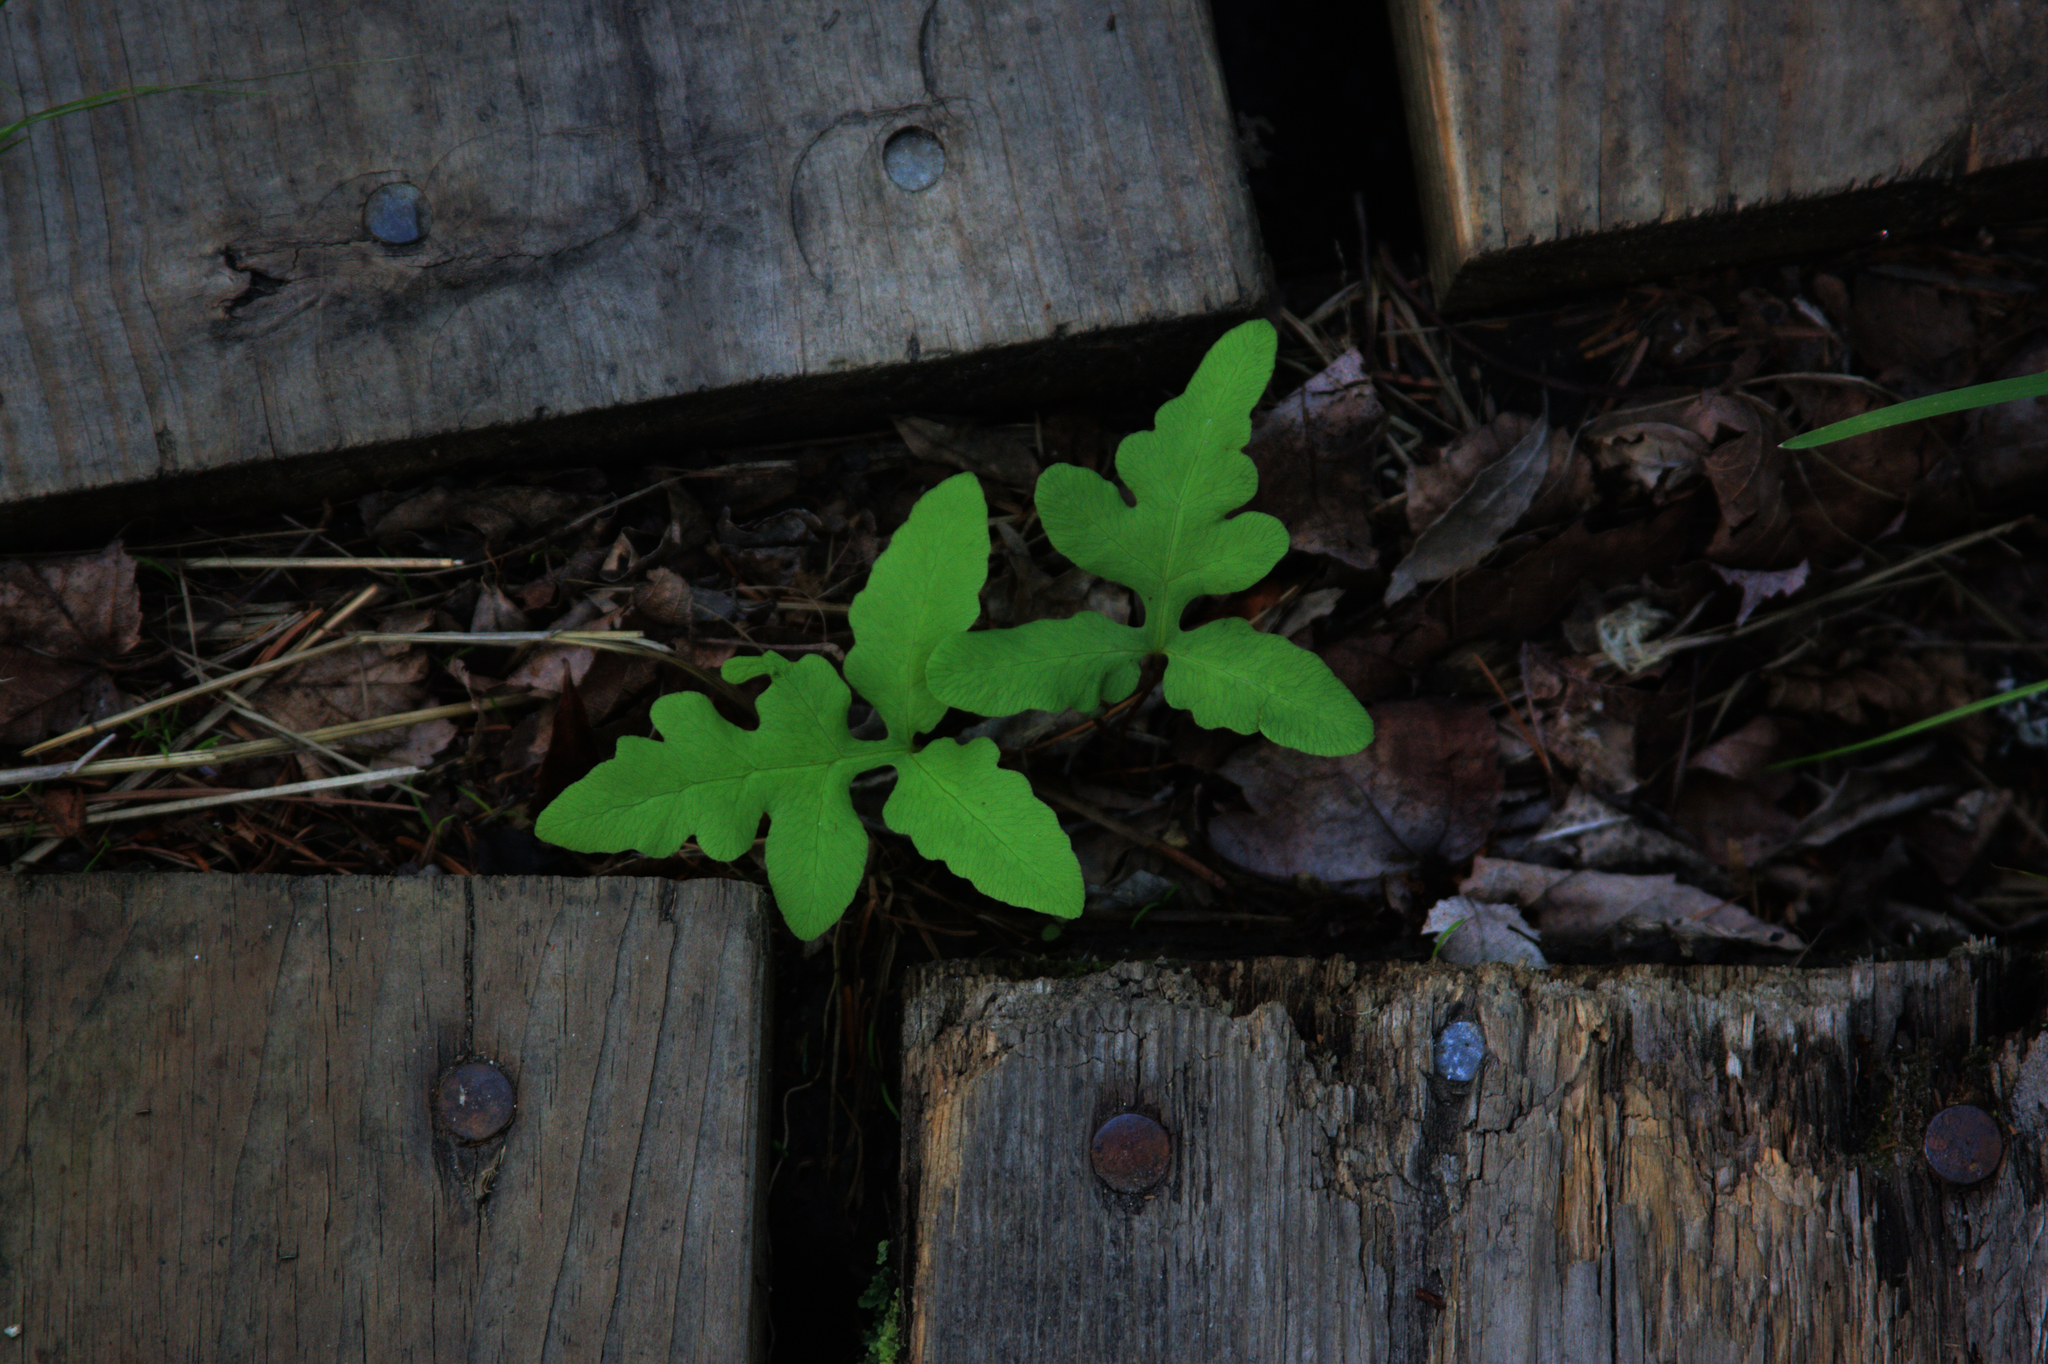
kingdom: Plantae
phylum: Tracheophyta
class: Polypodiopsida
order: Polypodiales
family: Onocleaceae
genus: Onoclea
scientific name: Onoclea sensibilis
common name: Sensitive fern
